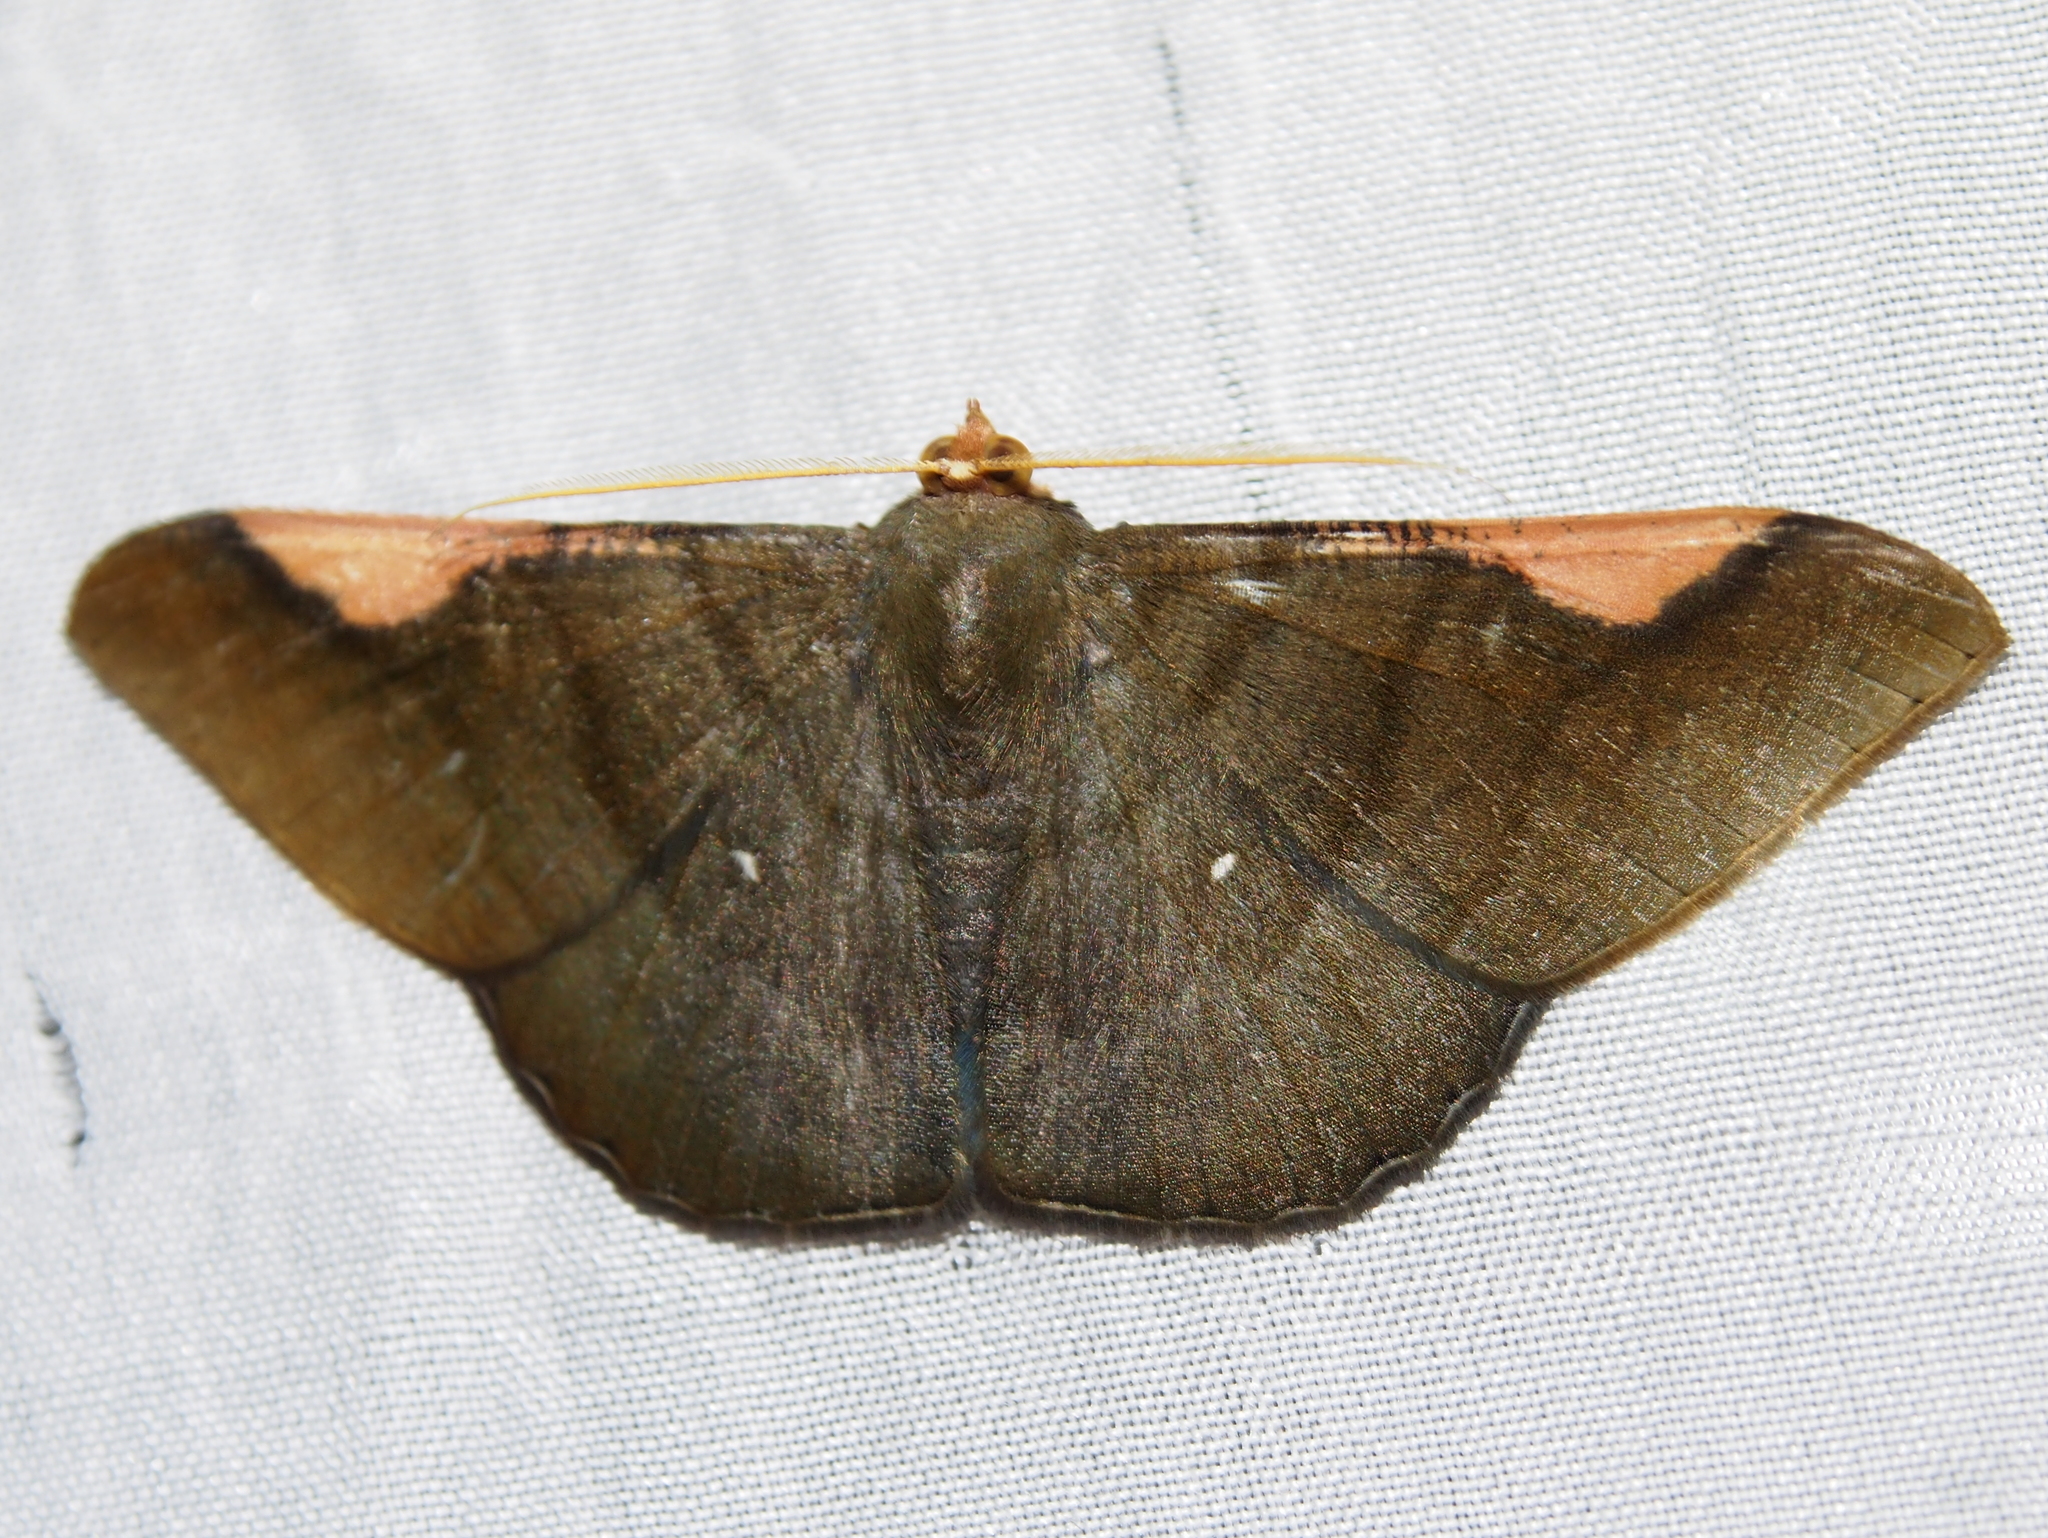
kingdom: Animalia
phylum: Arthropoda
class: Insecta
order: Lepidoptera
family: Geometridae
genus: Sphacelodes
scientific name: Sphacelodes vulneraria
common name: Looper moth
